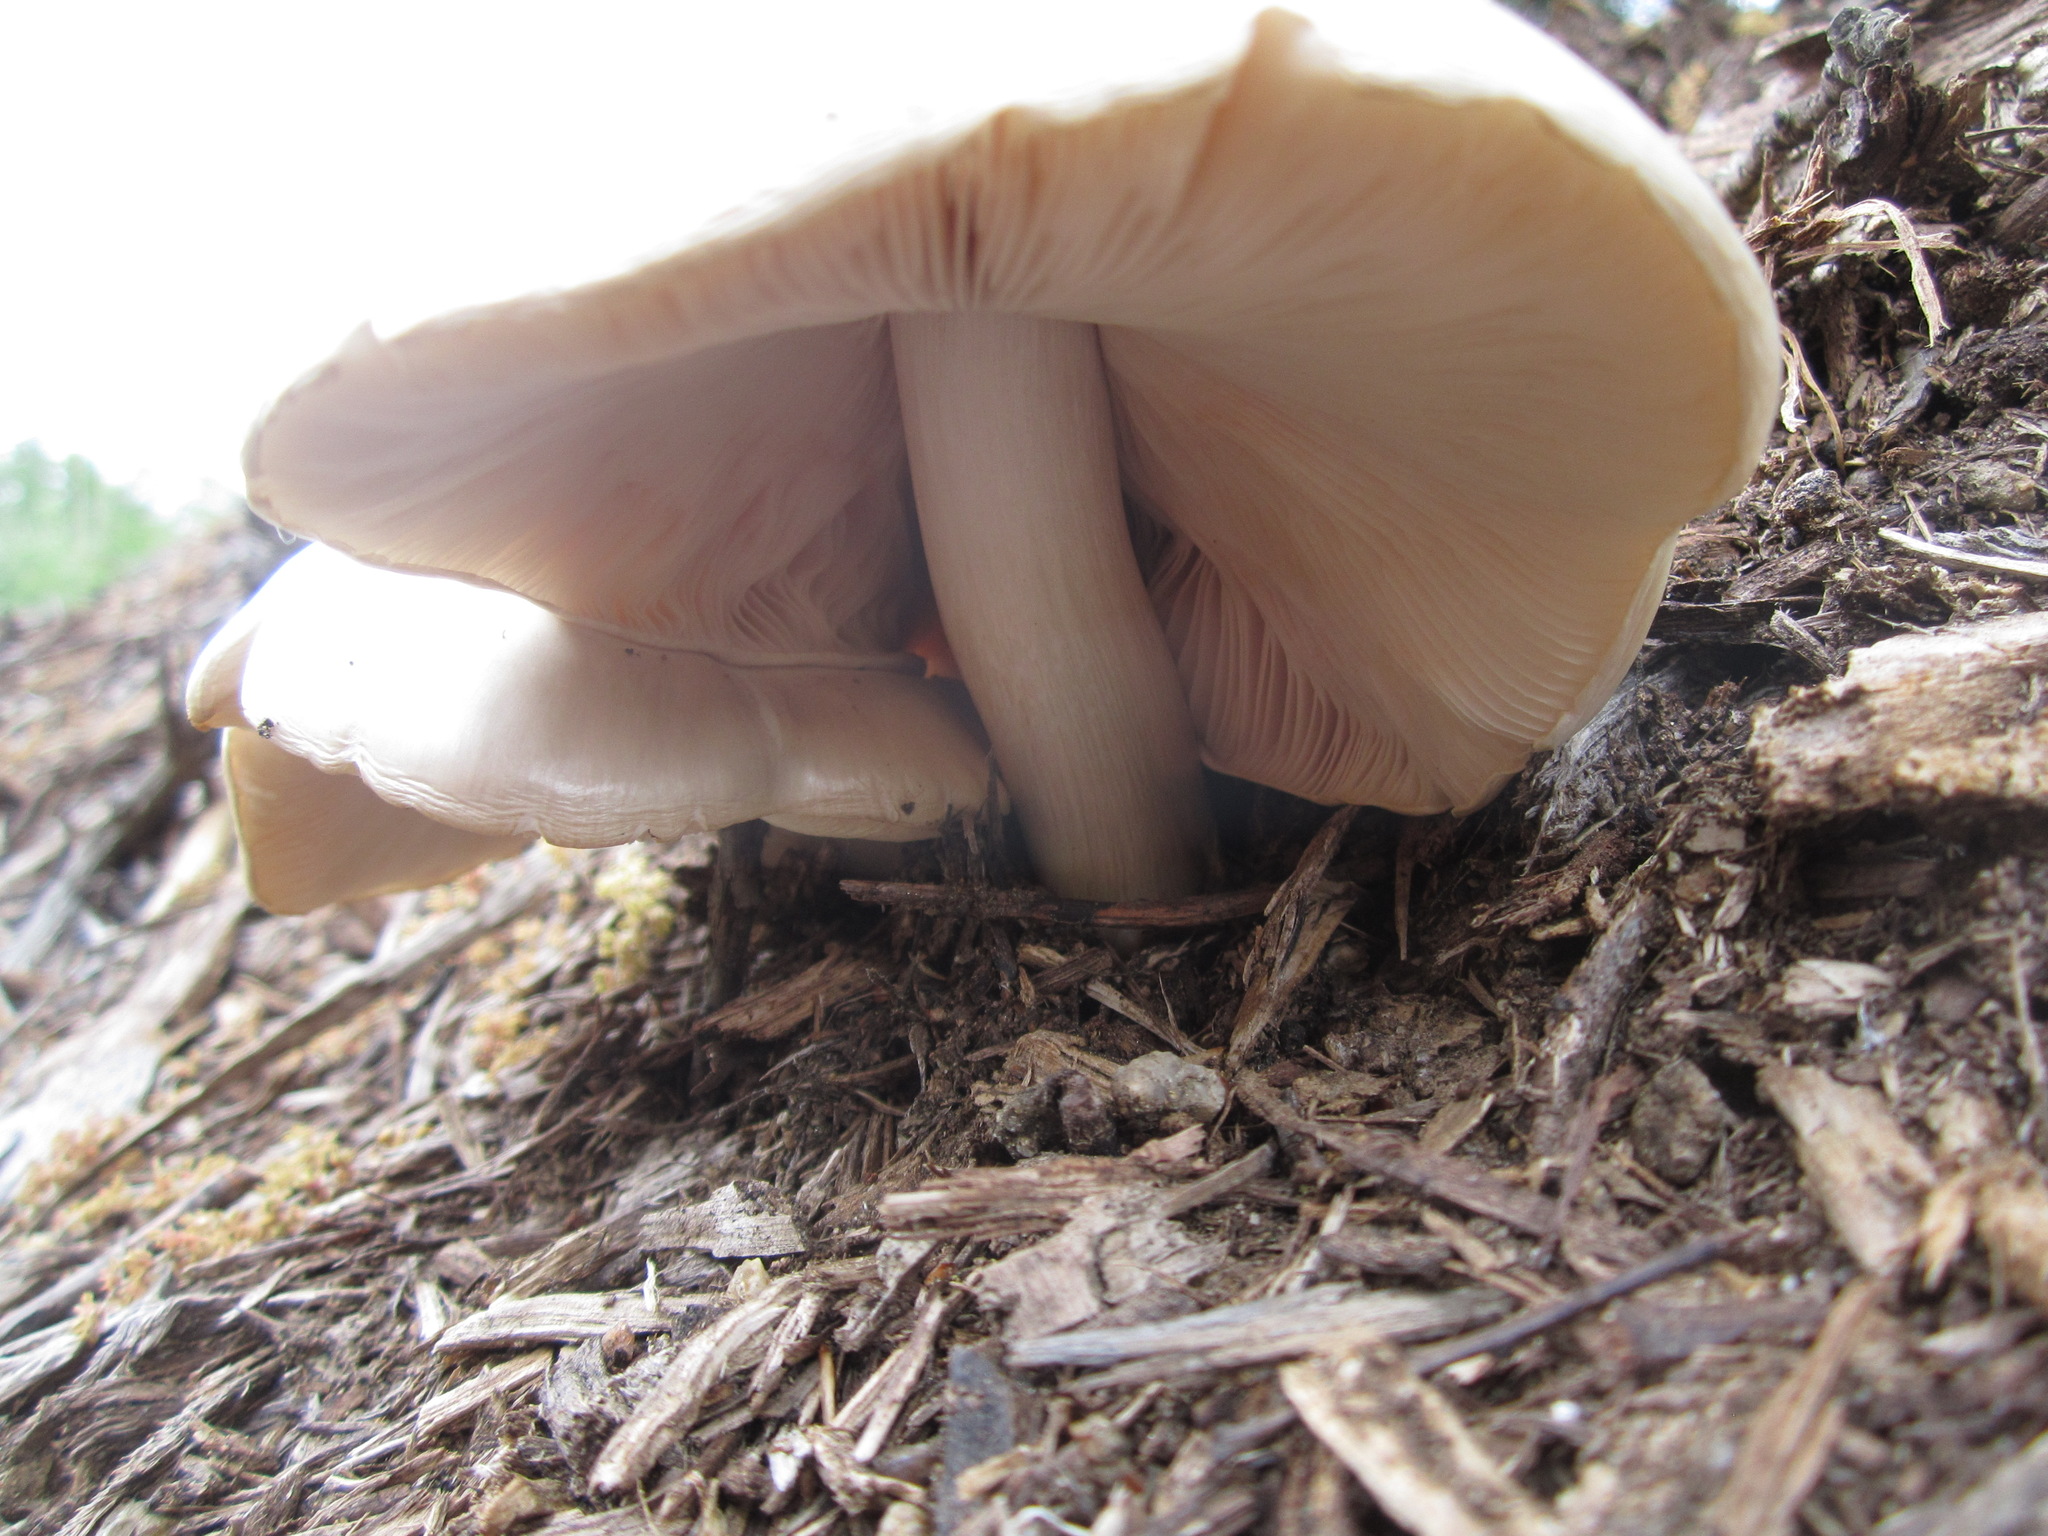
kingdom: Fungi
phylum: Basidiomycota
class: Agaricomycetes
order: Agaricales
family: Pluteaceae
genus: Pluteus
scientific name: Pluteus petasatus
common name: Scaly shield
